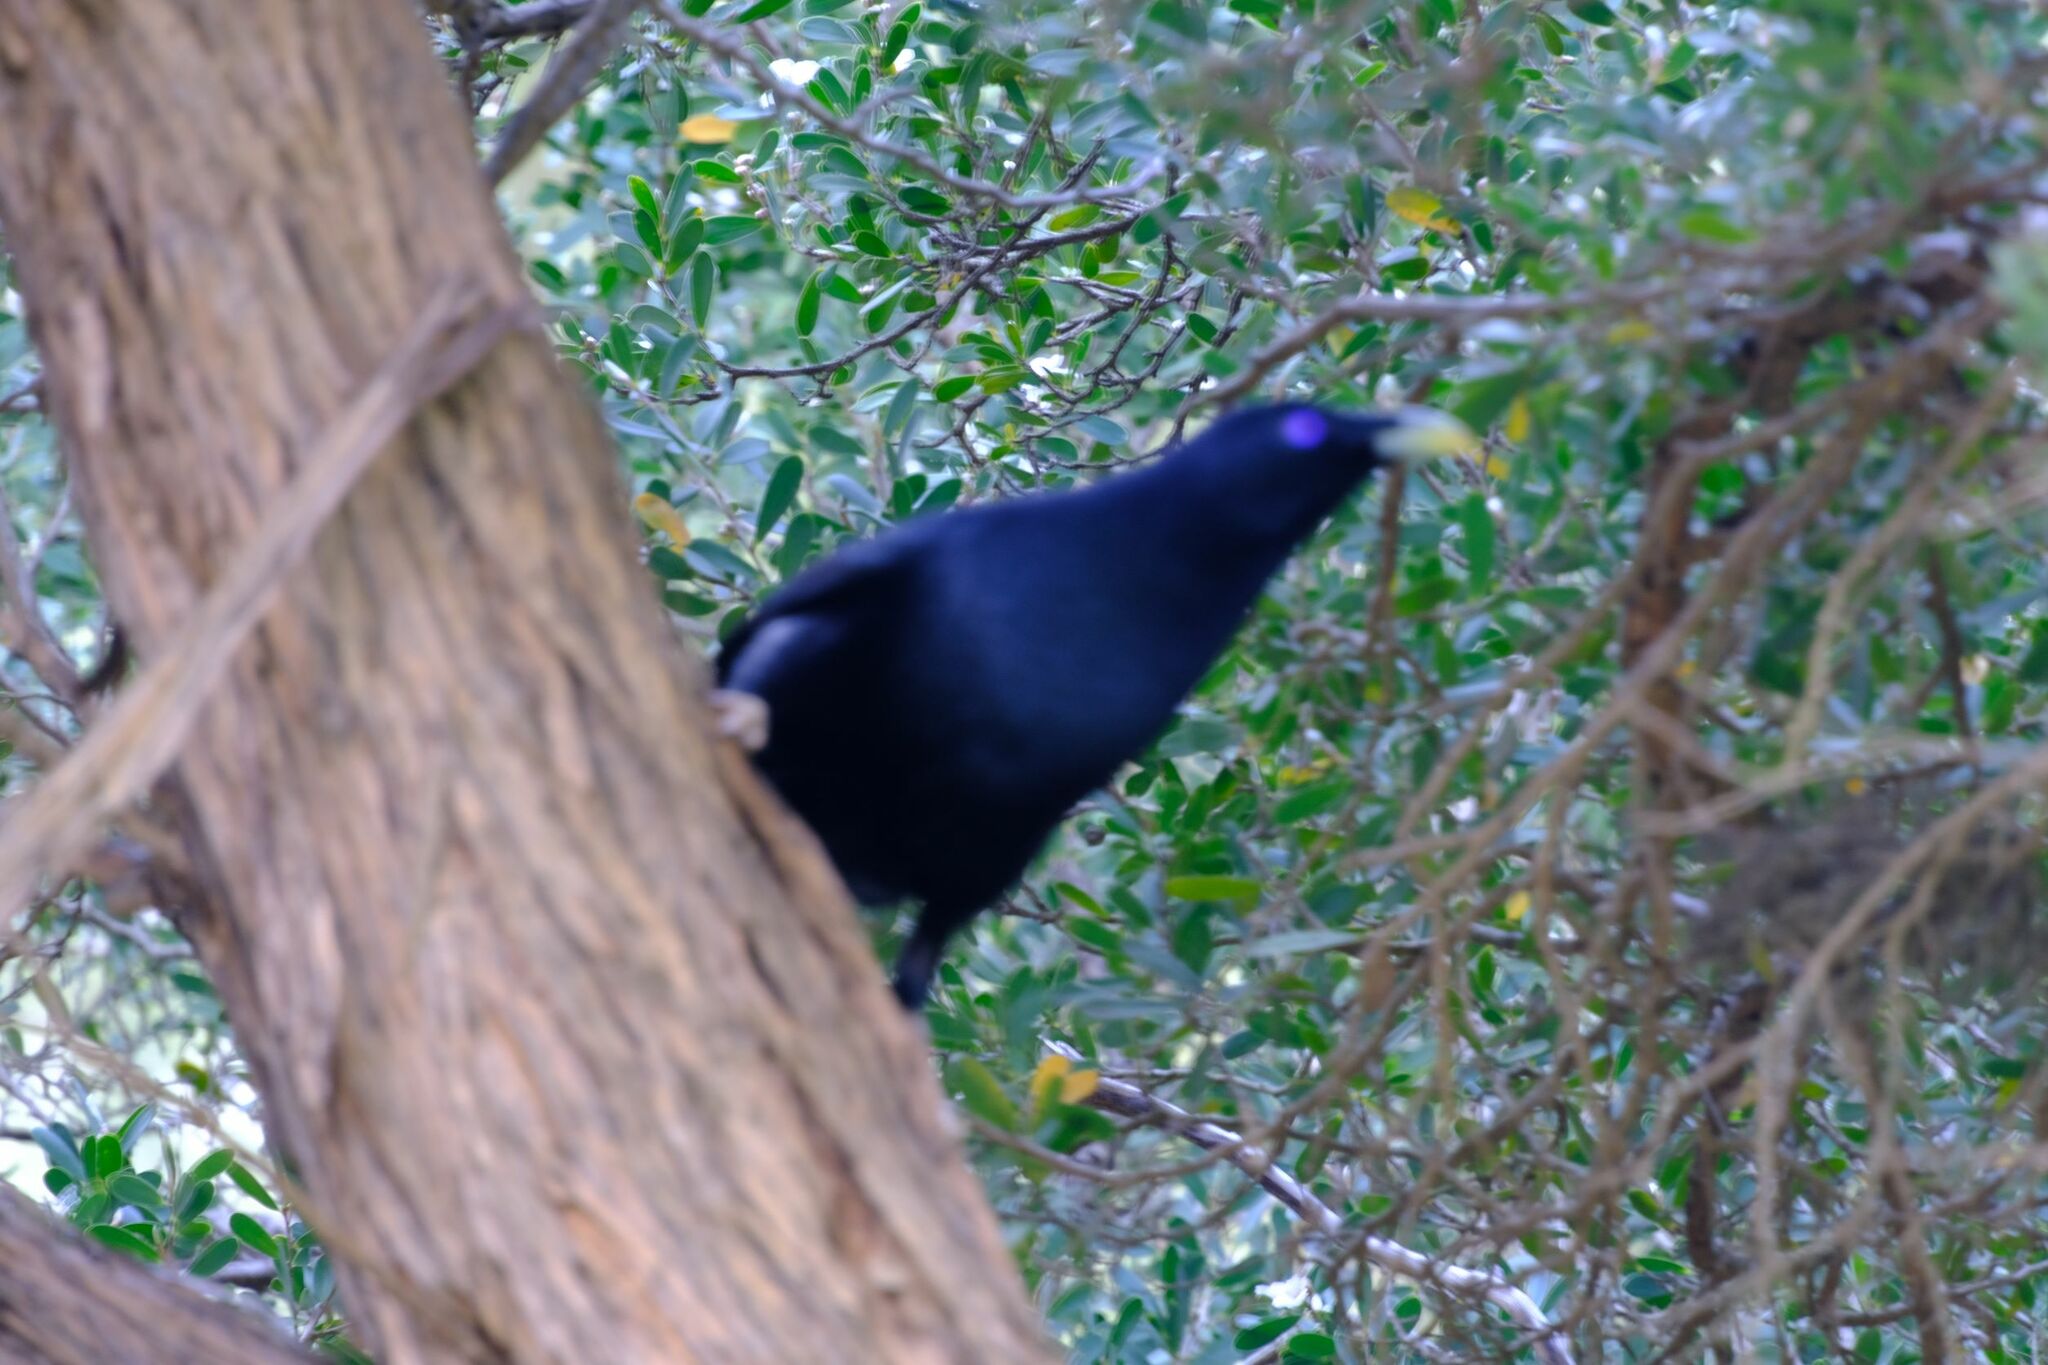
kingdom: Animalia
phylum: Chordata
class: Aves
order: Passeriformes
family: Ptilonorhynchidae
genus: Ptilonorhynchus
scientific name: Ptilonorhynchus violaceus
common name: Satin bowerbird
